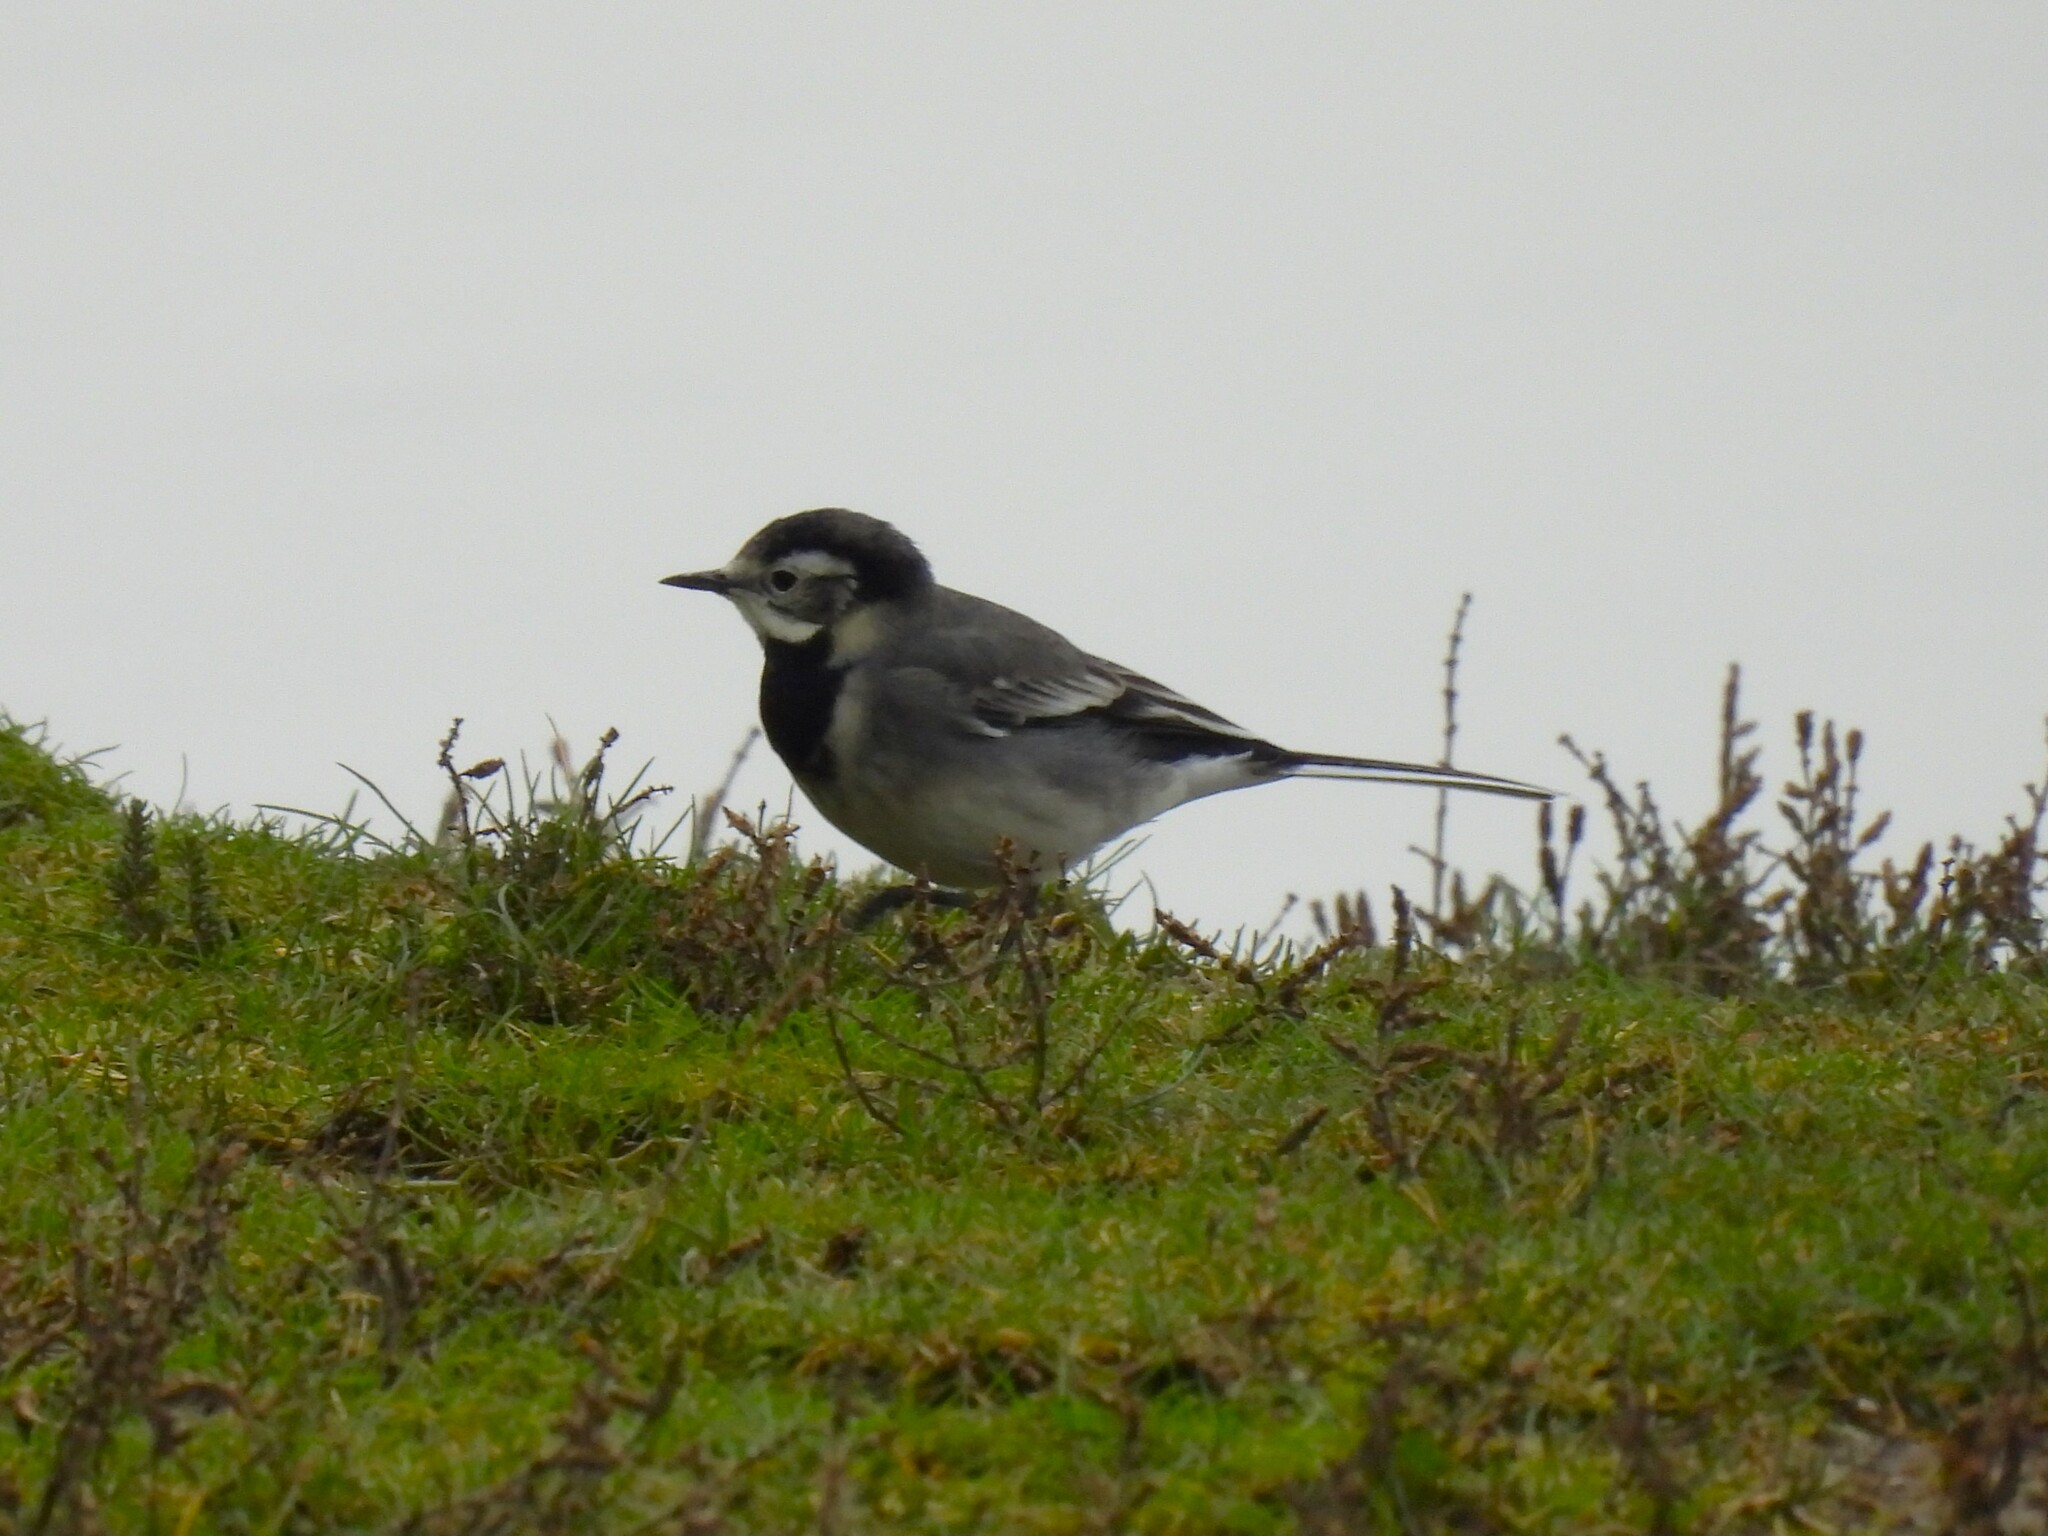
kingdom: Animalia
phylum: Chordata
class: Aves
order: Passeriformes
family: Motacillidae
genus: Motacilla
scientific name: Motacilla alba
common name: White wagtail
